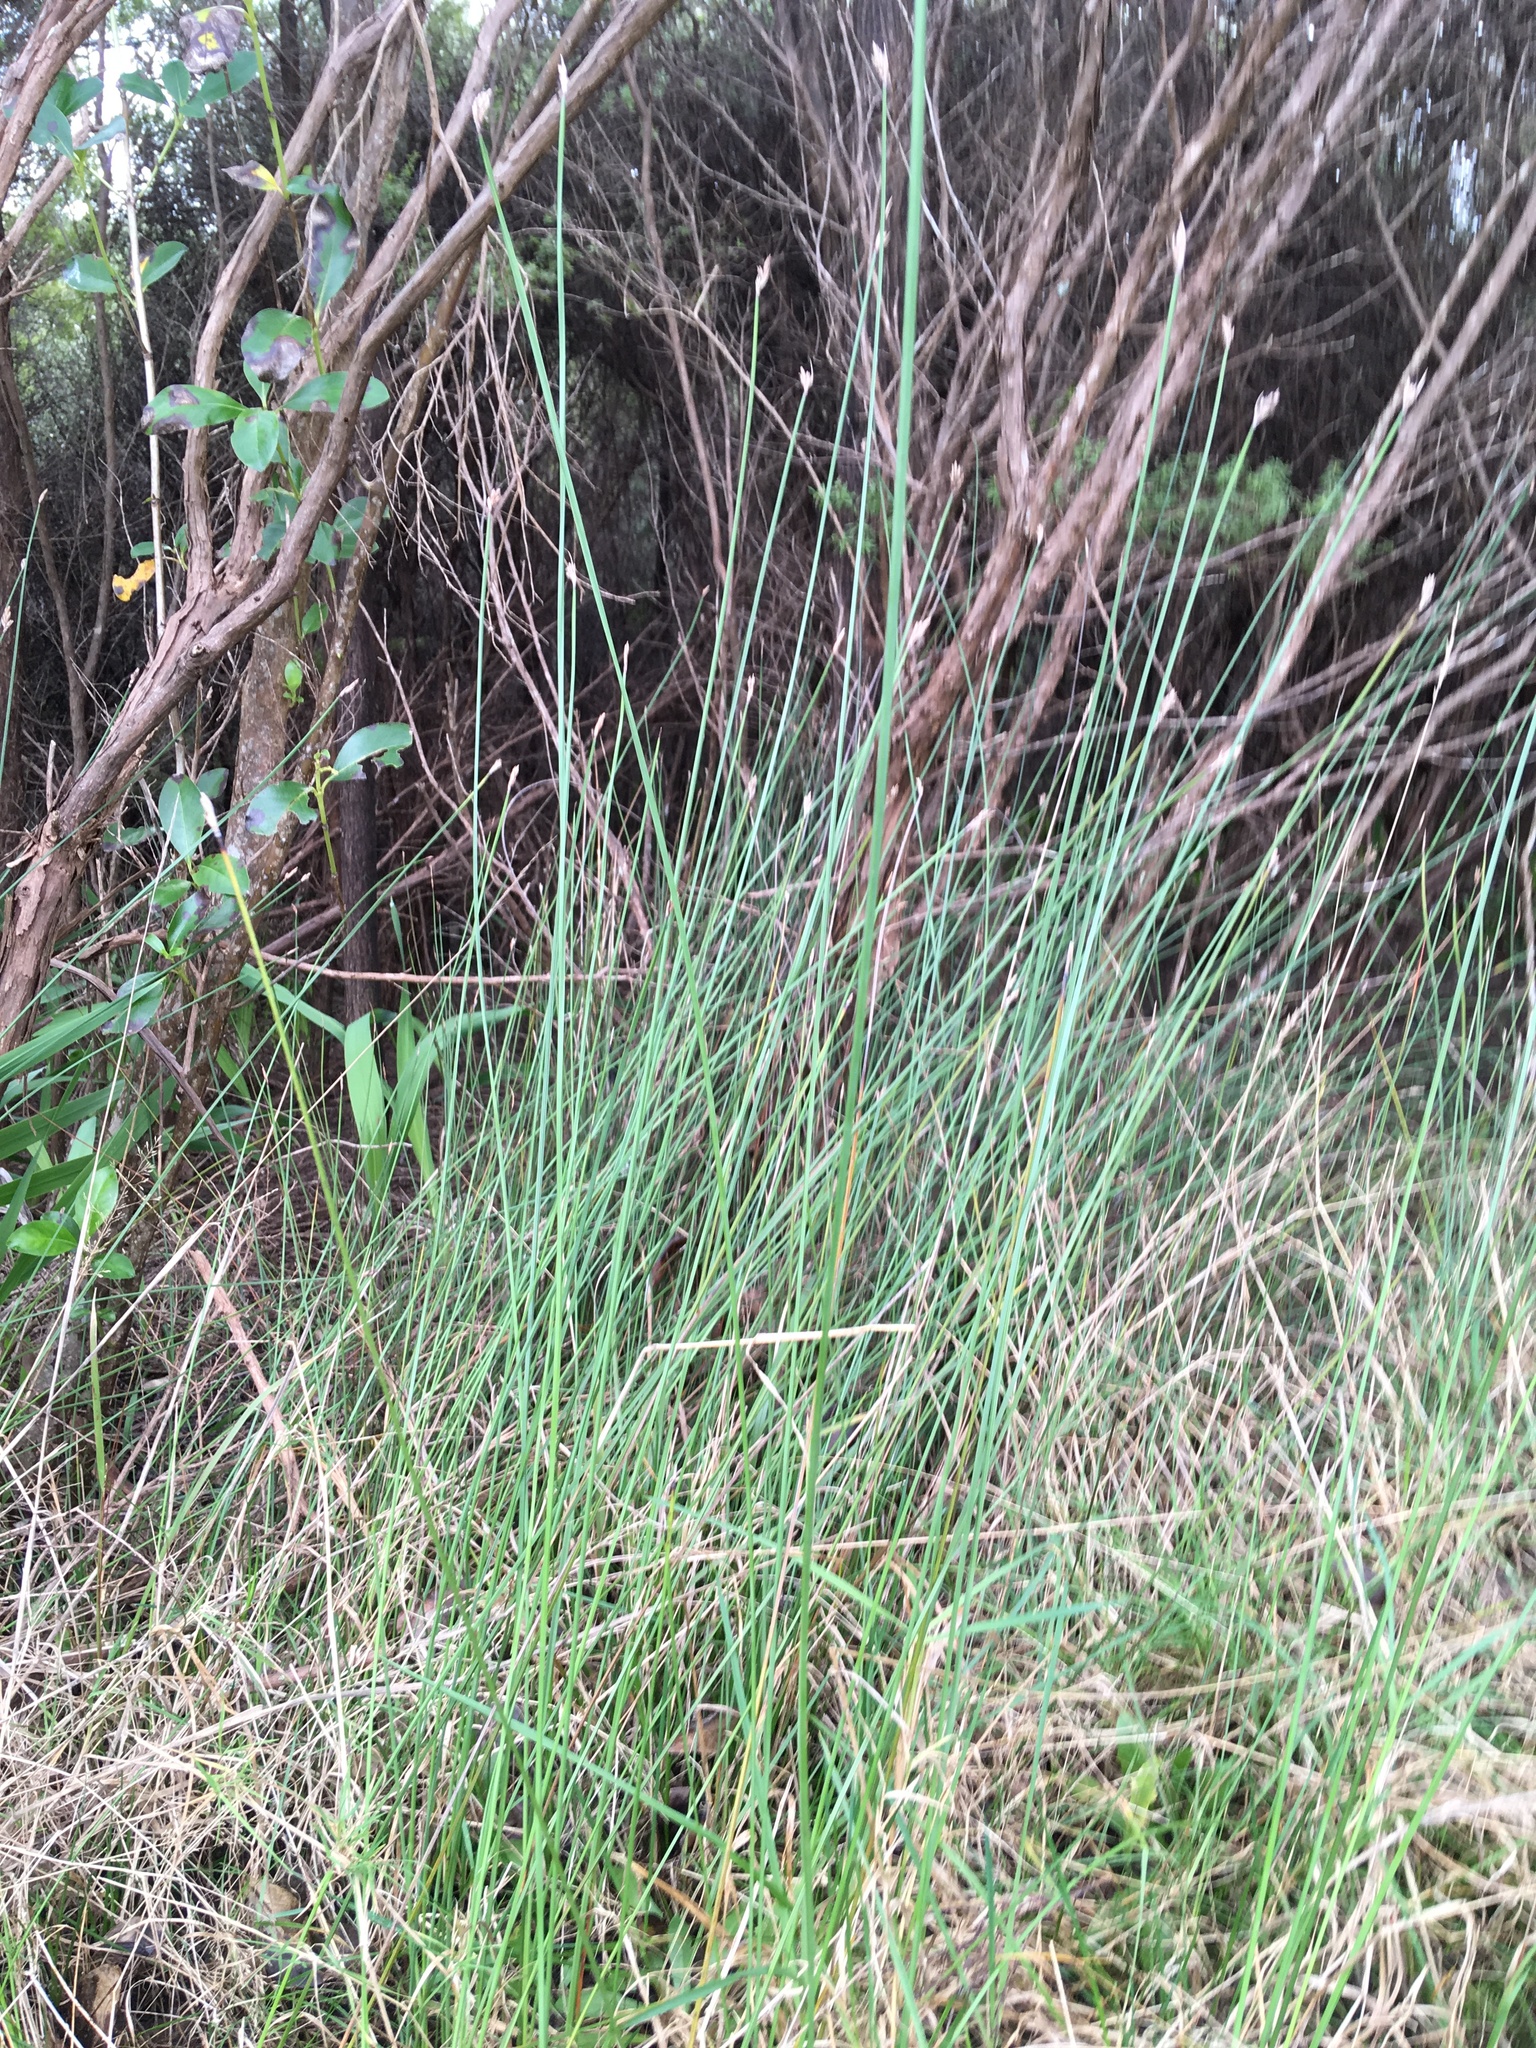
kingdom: Plantae
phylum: Tracheophyta
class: Liliopsida
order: Poales
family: Cyperaceae
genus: Lepidosperma
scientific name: Lepidosperma australe
